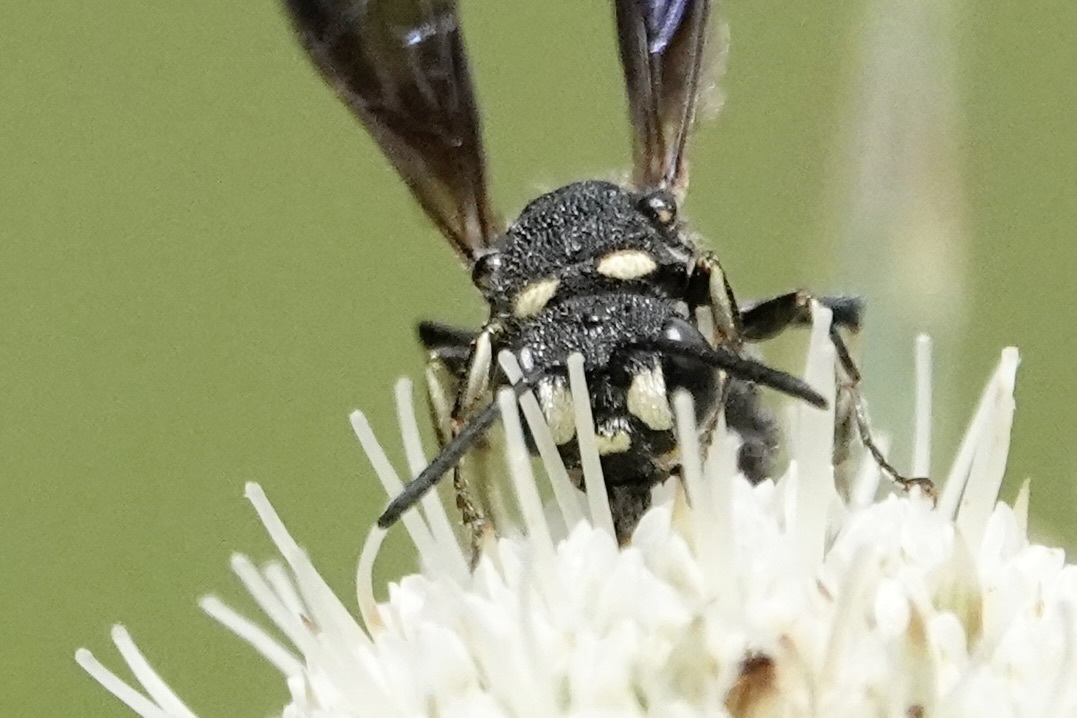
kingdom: Animalia
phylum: Arthropoda
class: Insecta
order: Hymenoptera
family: Crabronidae
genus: Cerceris
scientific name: Cerceris fumipennis
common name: Smokey-winged beetle bandit wasp
